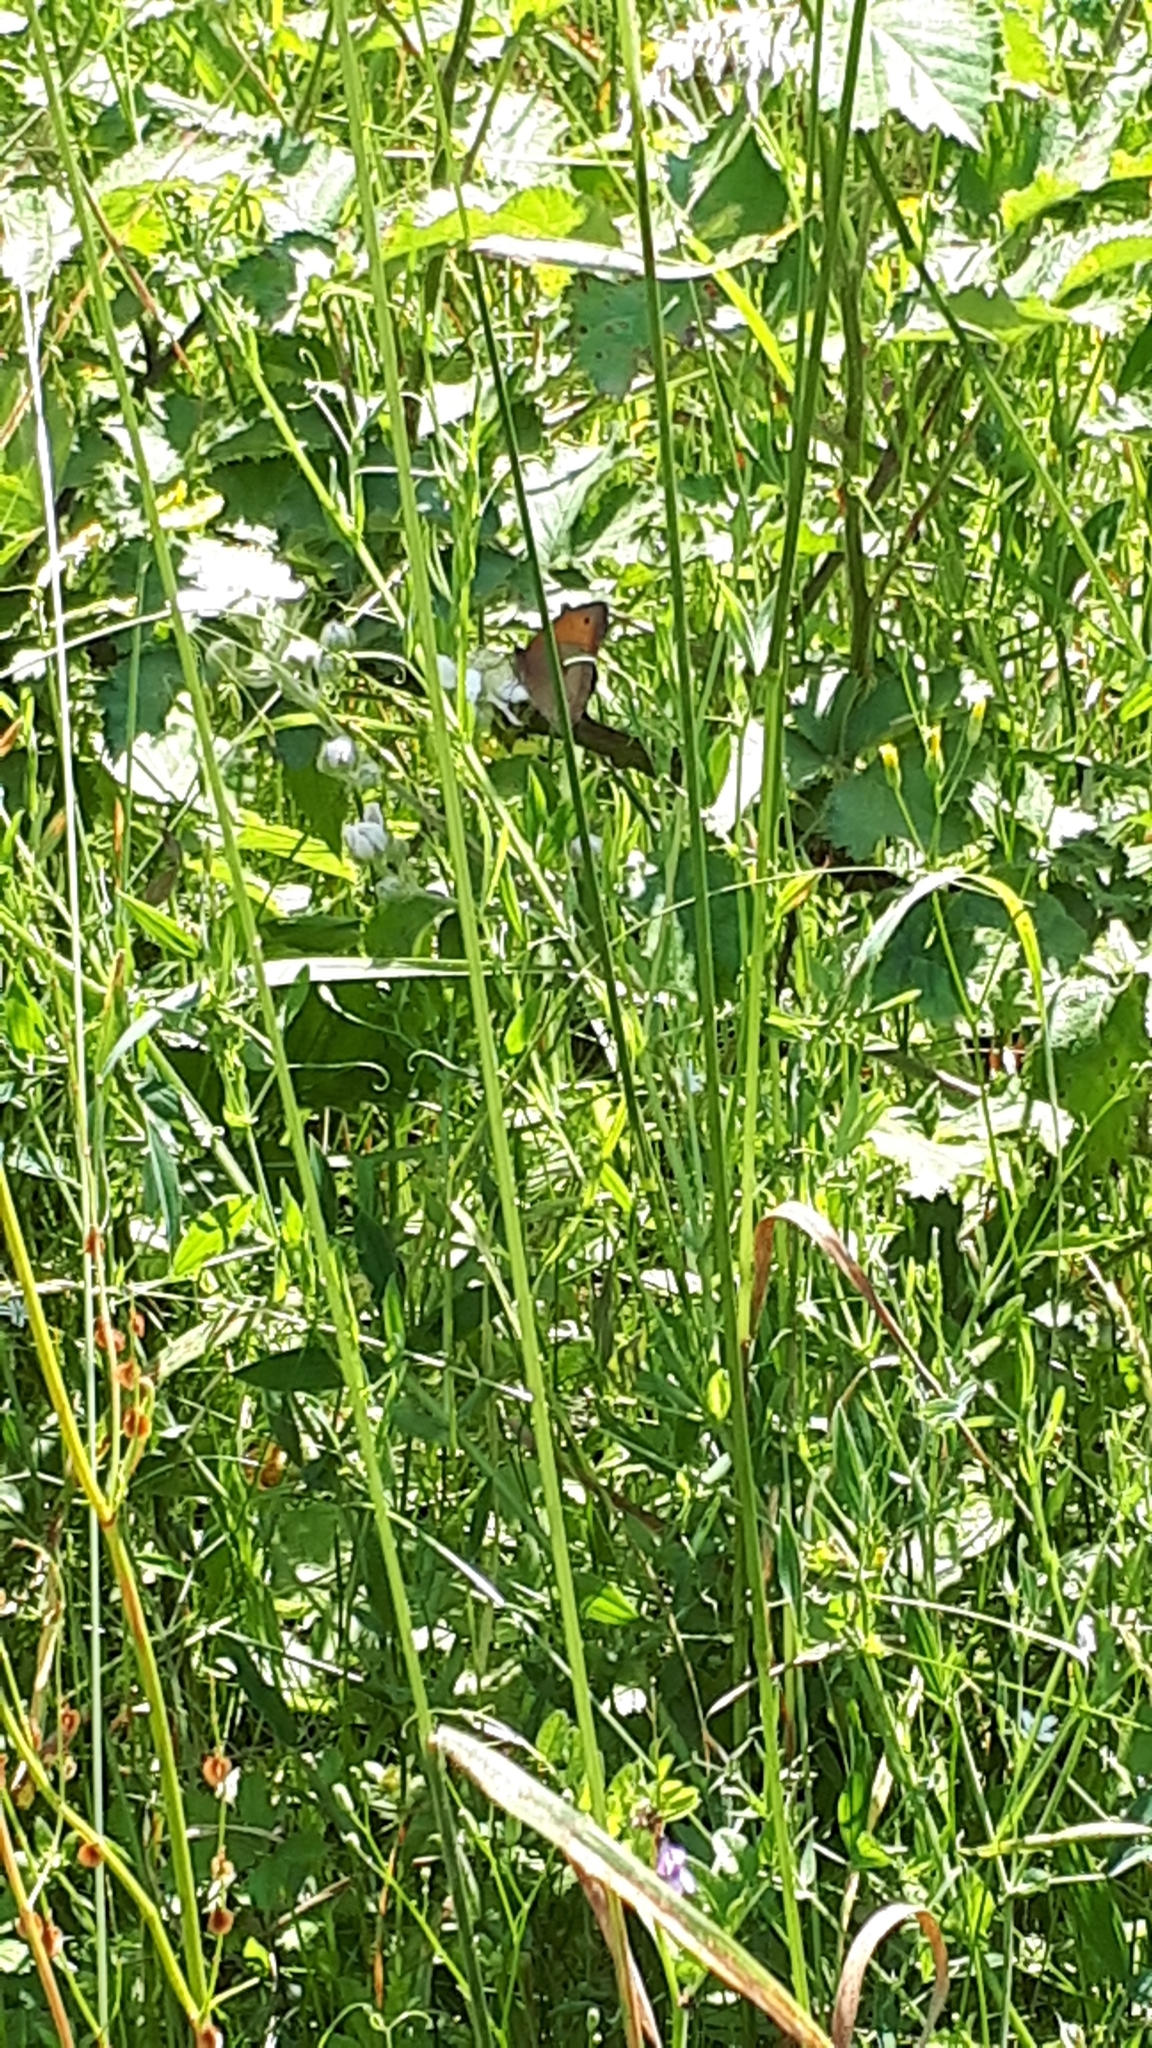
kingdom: Animalia
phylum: Arthropoda
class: Insecta
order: Lepidoptera
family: Nymphalidae
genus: Maniola
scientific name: Maniola jurtina
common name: Meadow brown
